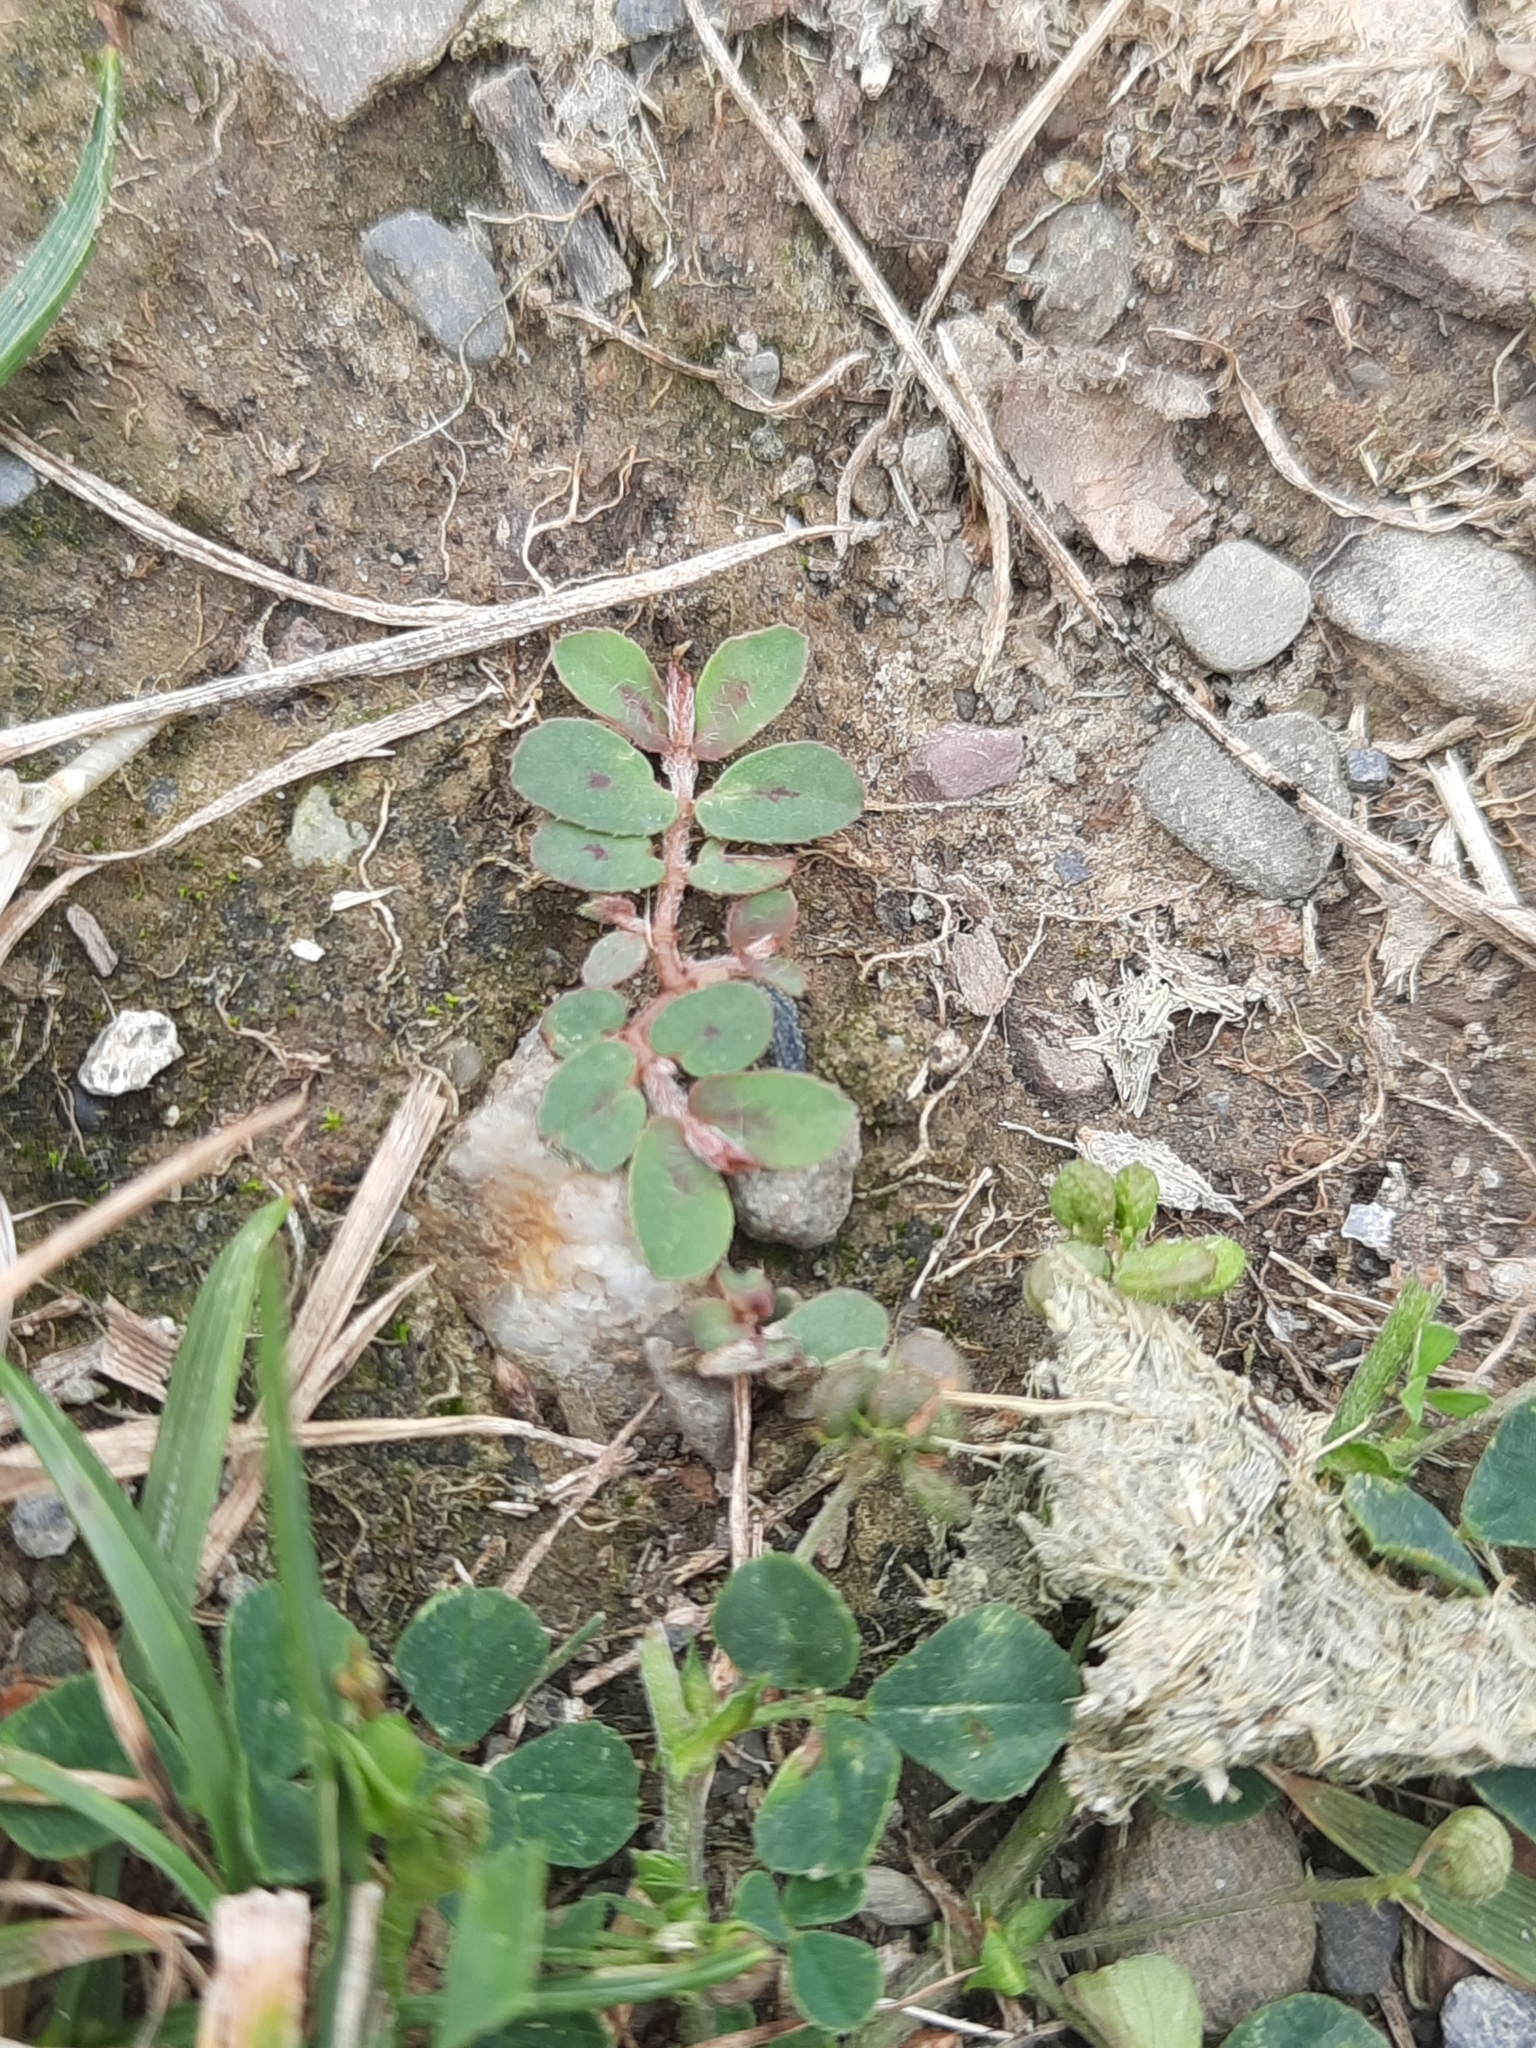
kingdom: Plantae
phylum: Tracheophyta
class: Magnoliopsida
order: Malpighiales
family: Euphorbiaceae
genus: Euphorbia
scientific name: Euphorbia maculata
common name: Spotted spurge
